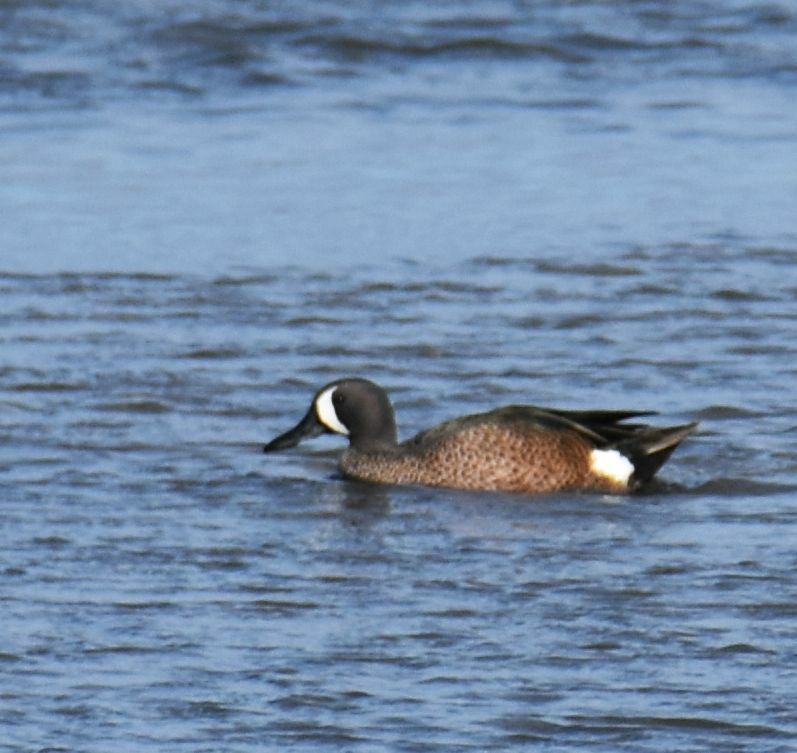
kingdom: Animalia
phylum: Chordata
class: Aves
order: Anseriformes
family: Anatidae
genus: Spatula
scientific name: Spatula discors
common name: Blue-winged teal
